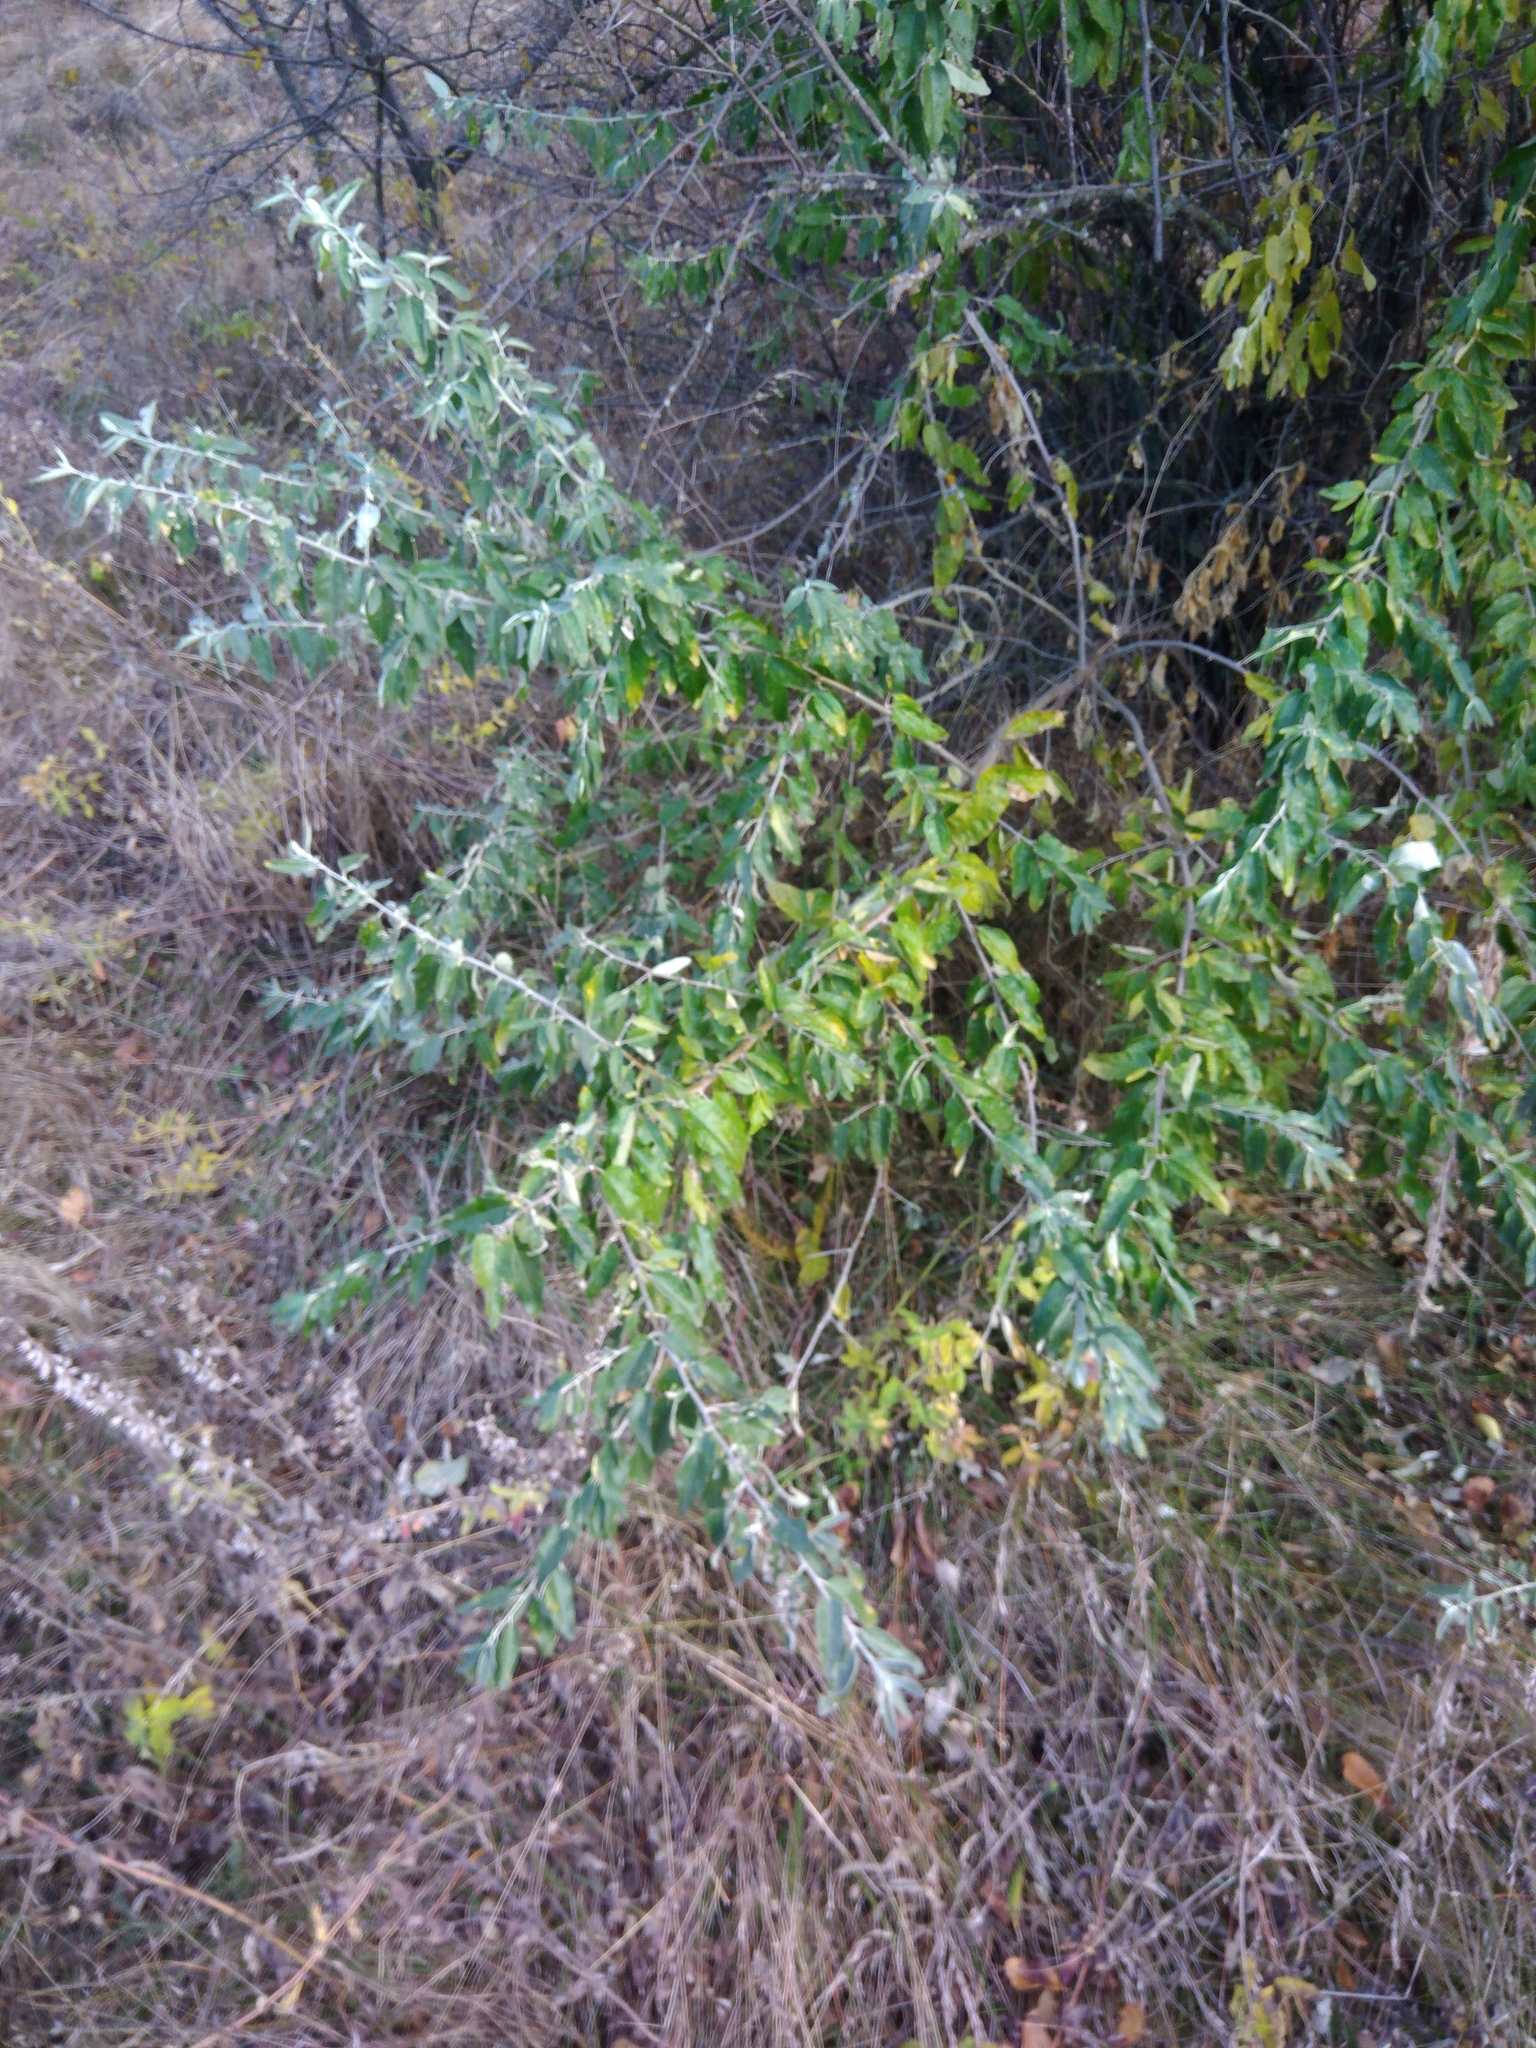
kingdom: Plantae
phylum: Tracheophyta
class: Magnoliopsida
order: Rosales
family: Elaeagnaceae
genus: Elaeagnus
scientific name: Elaeagnus angustifolia
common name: Russian olive
